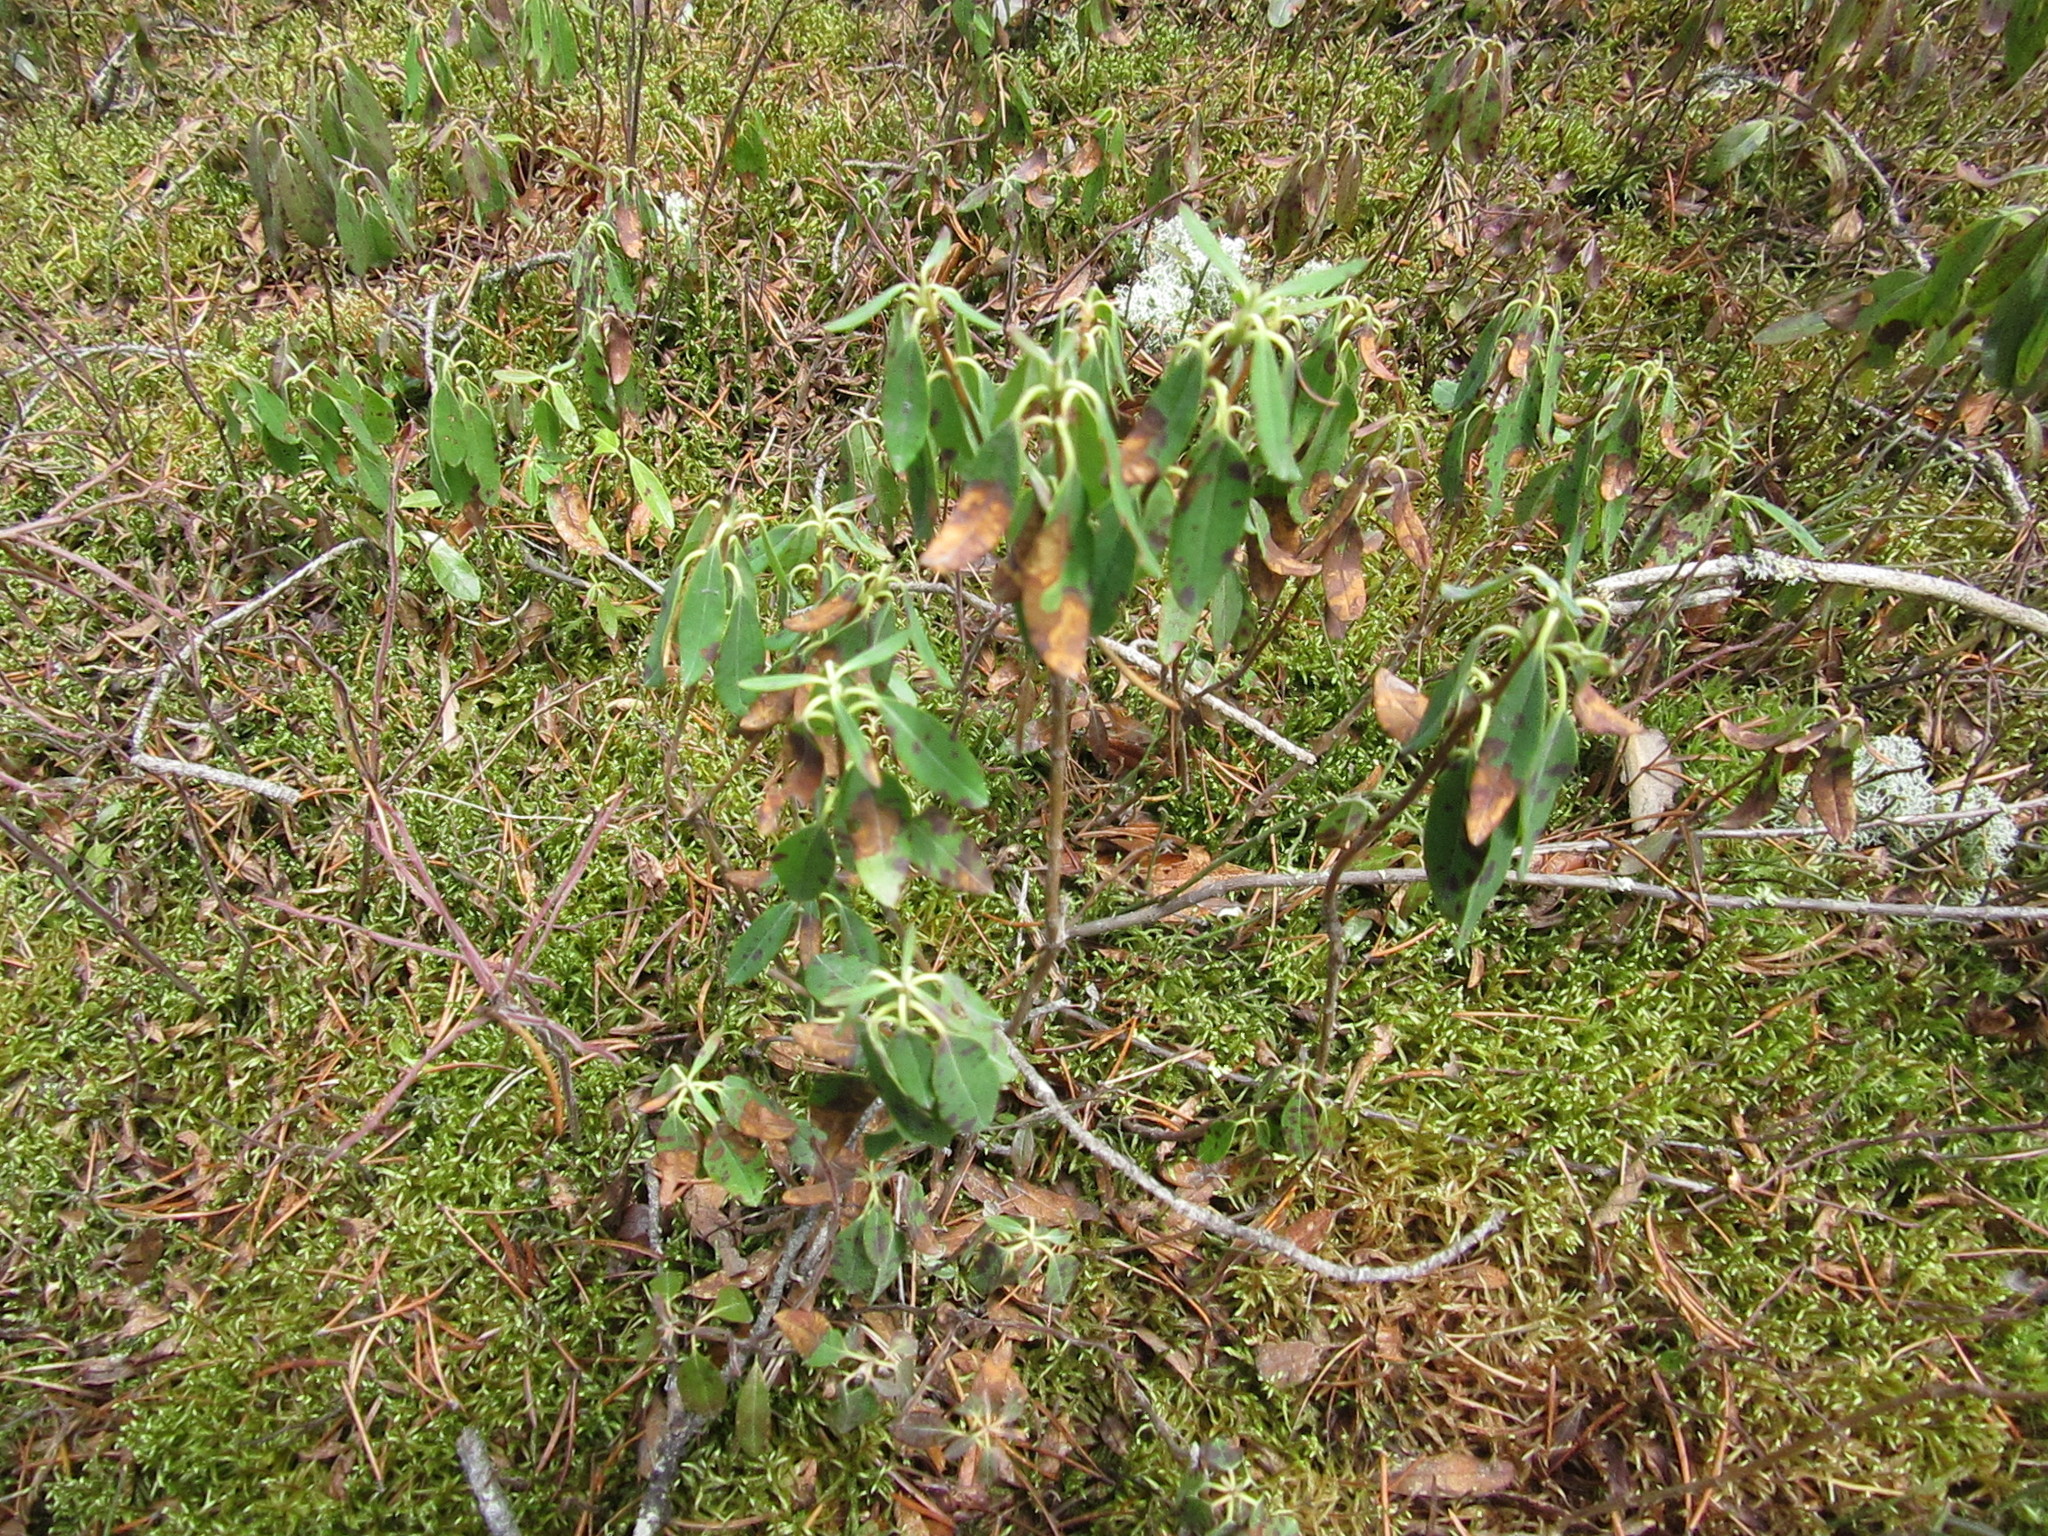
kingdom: Plantae
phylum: Tracheophyta
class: Magnoliopsida
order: Ericales
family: Ericaceae
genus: Kalmia
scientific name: Kalmia angustifolia
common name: Sheep-laurel
